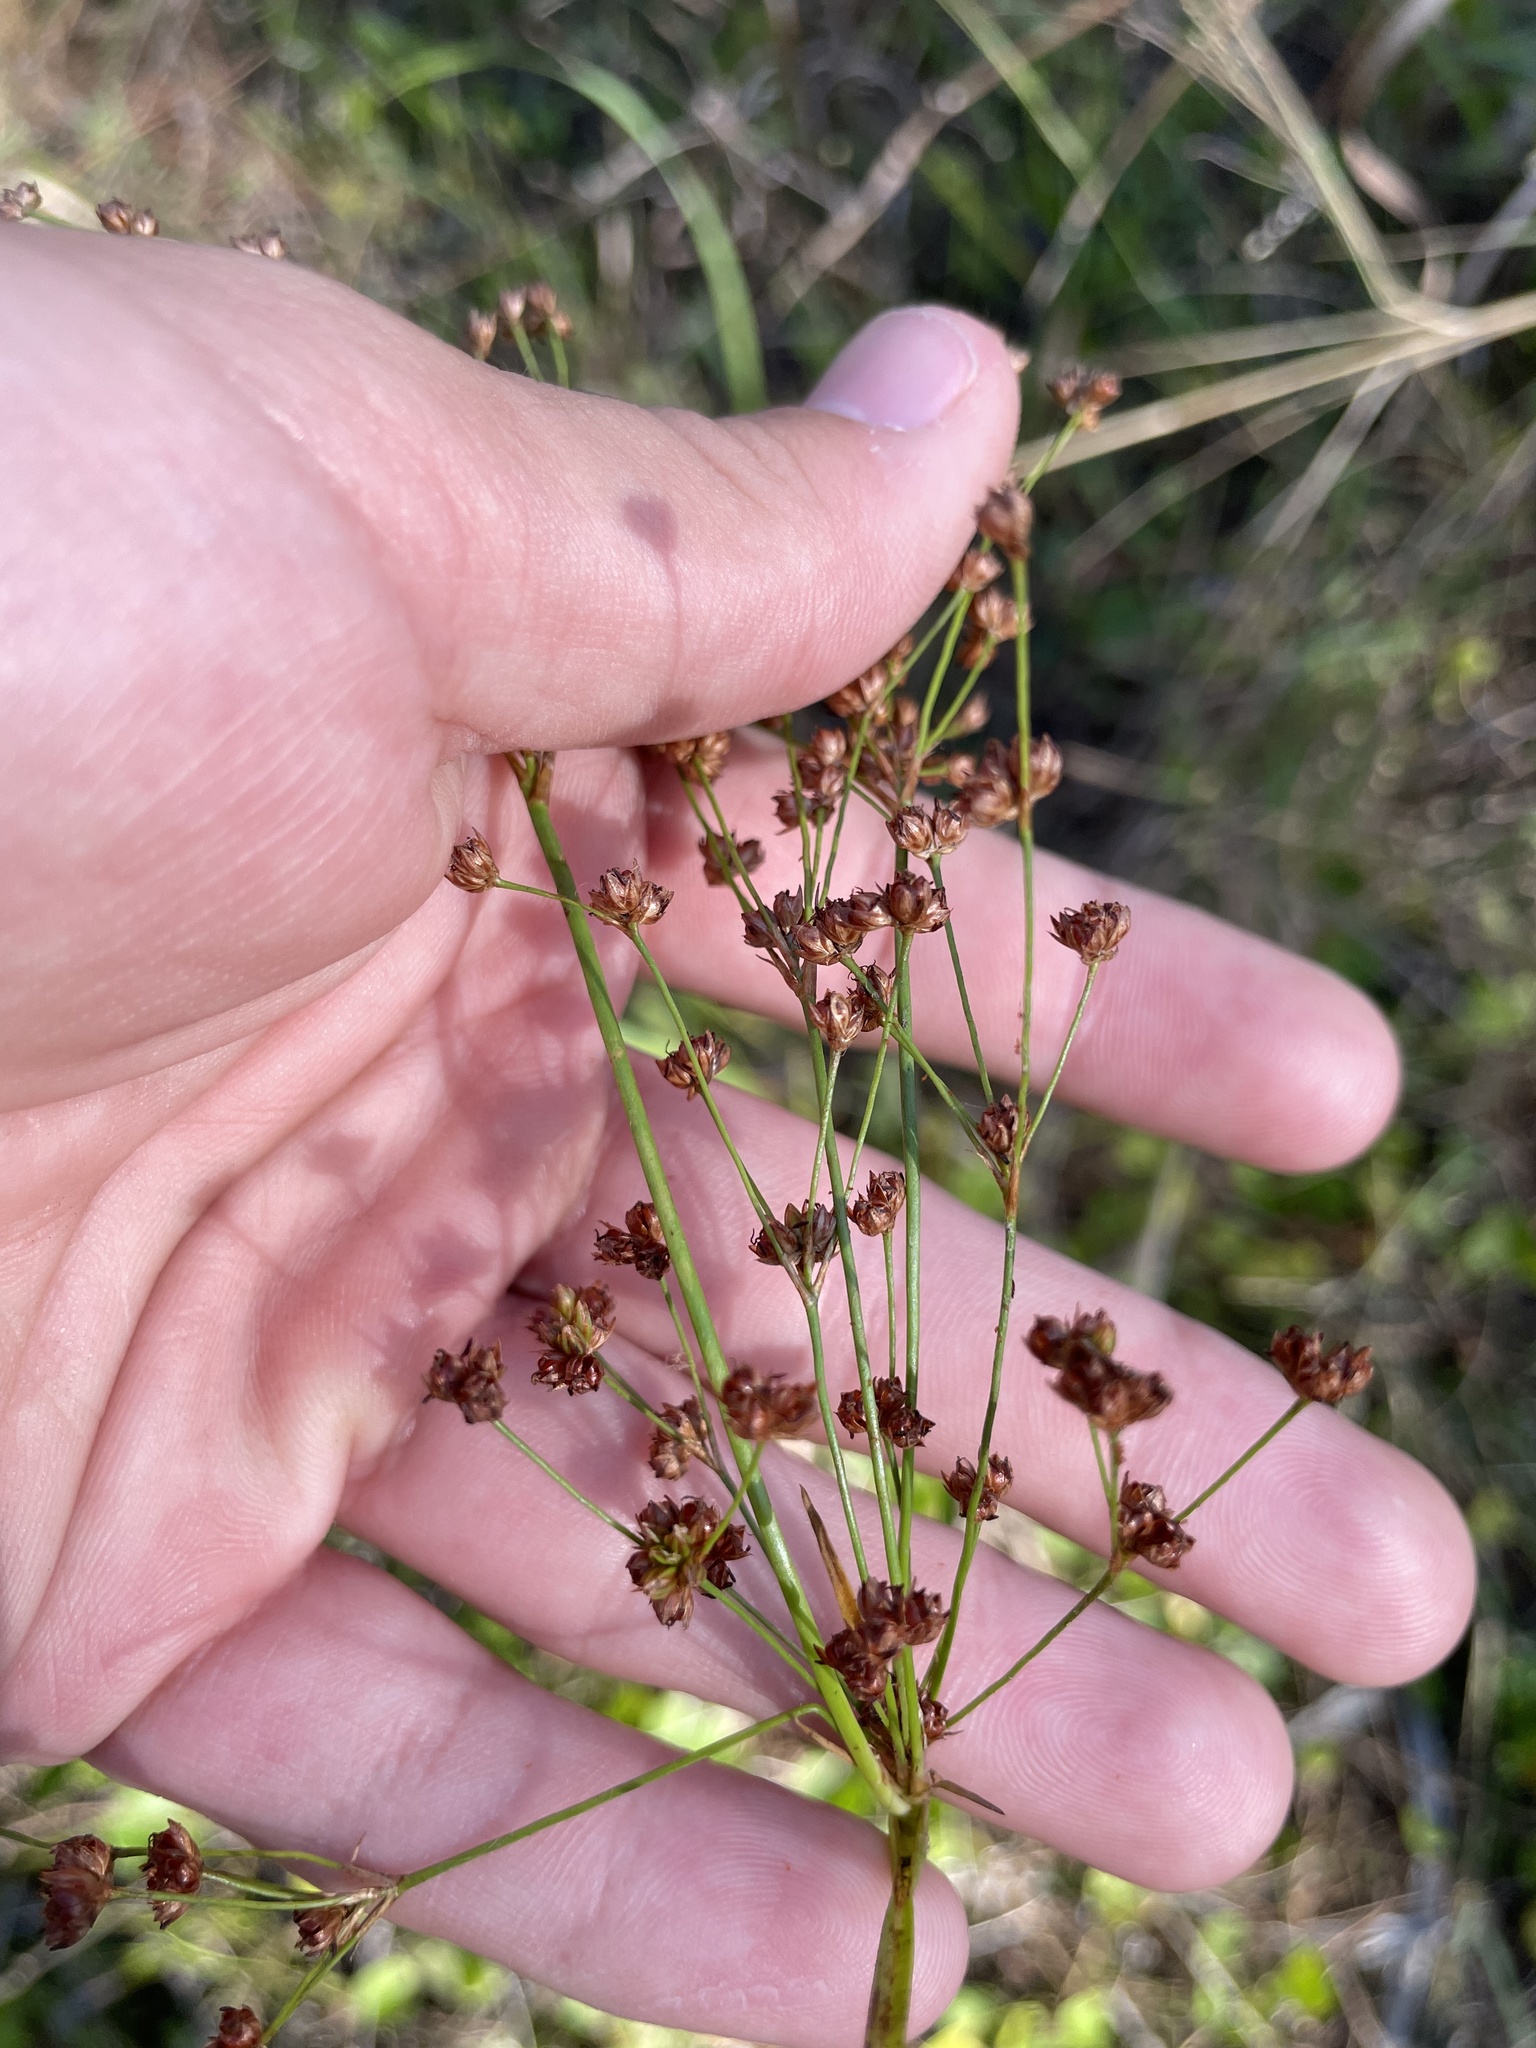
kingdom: Plantae
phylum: Tracheophyta
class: Liliopsida
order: Poales
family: Juncaceae
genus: Juncus
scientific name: Juncus marginatus
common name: Grass-leaf rush
